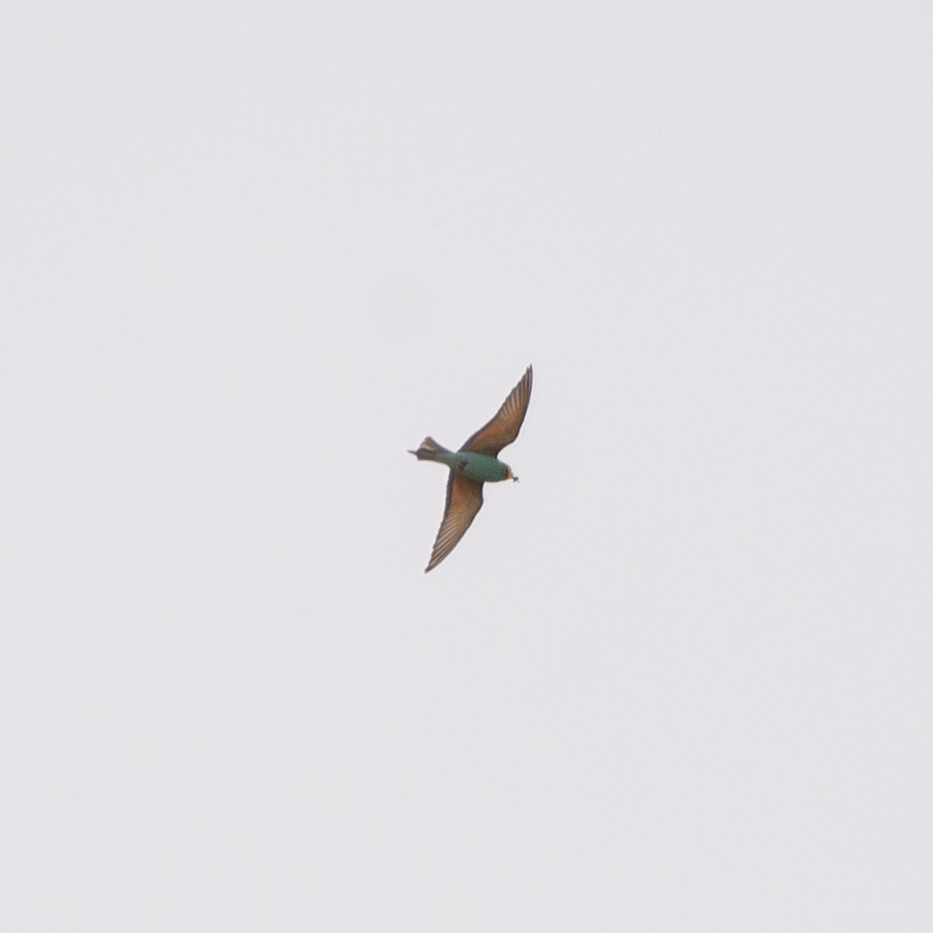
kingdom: Animalia
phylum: Chordata
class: Aves
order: Coraciiformes
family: Meropidae
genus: Merops
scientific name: Merops apiaster
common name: European bee-eater
